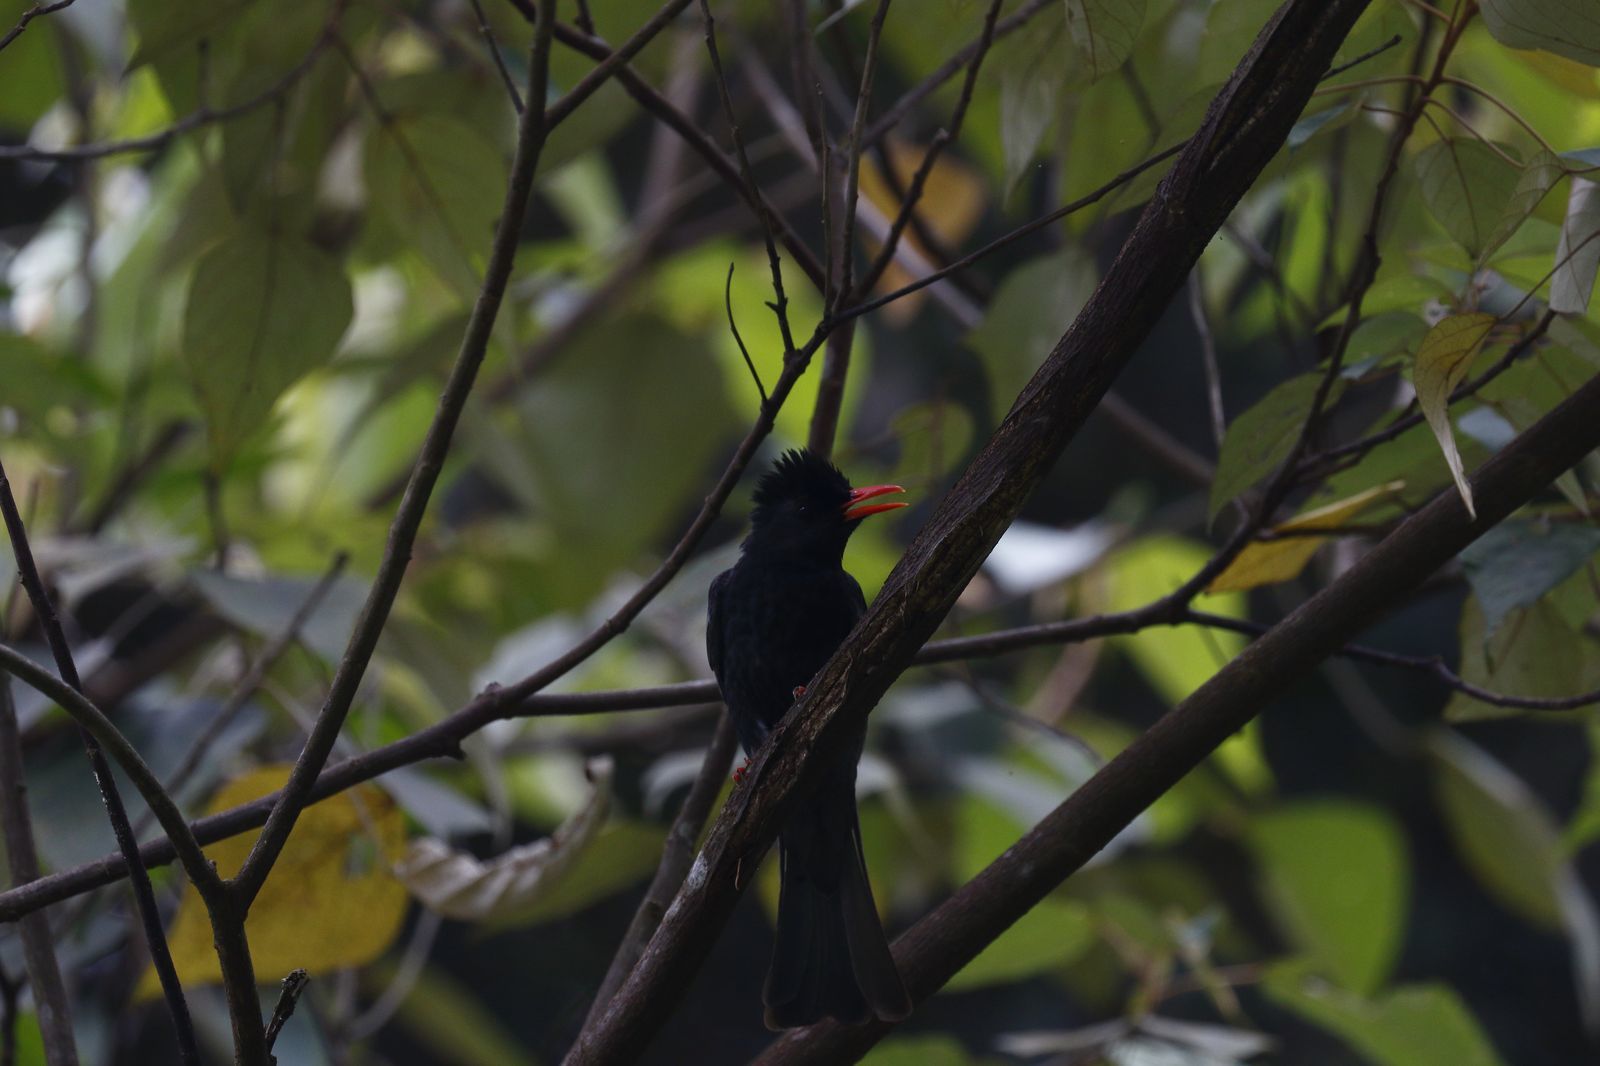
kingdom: Animalia
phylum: Chordata
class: Aves
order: Passeriformes
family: Pycnonotidae
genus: Hypsipetes
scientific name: Hypsipetes leucocephalus
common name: Black bulbul
